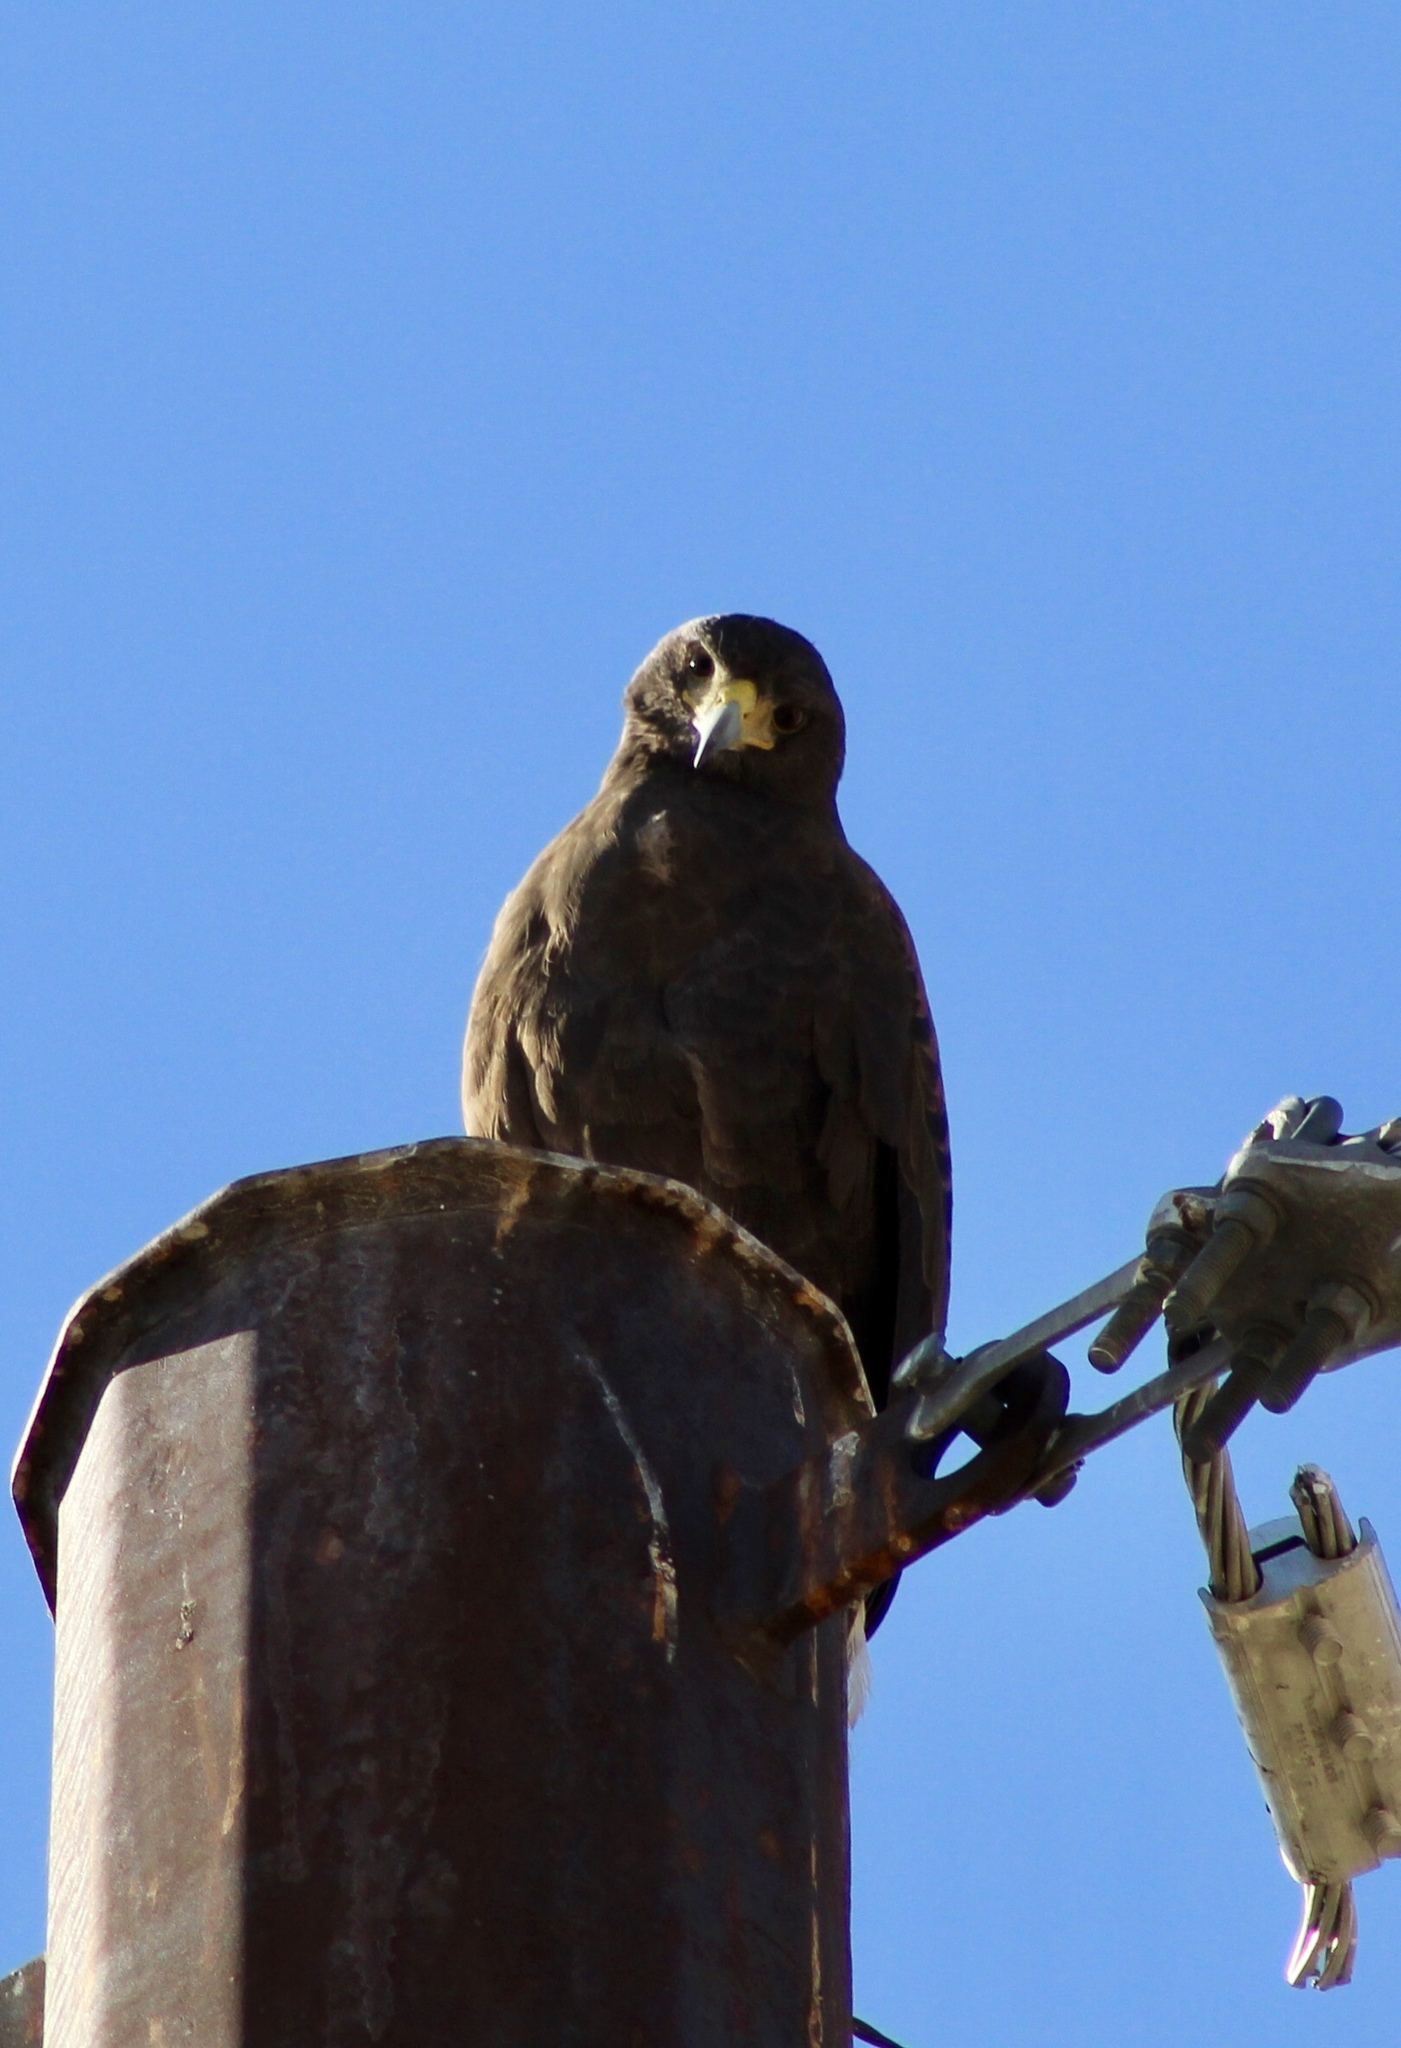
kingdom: Animalia
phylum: Chordata
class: Aves
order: Accipitriformes
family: Accipitridae
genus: Parabuteo
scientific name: Parabuteo unicinctus
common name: Harris's hawk
